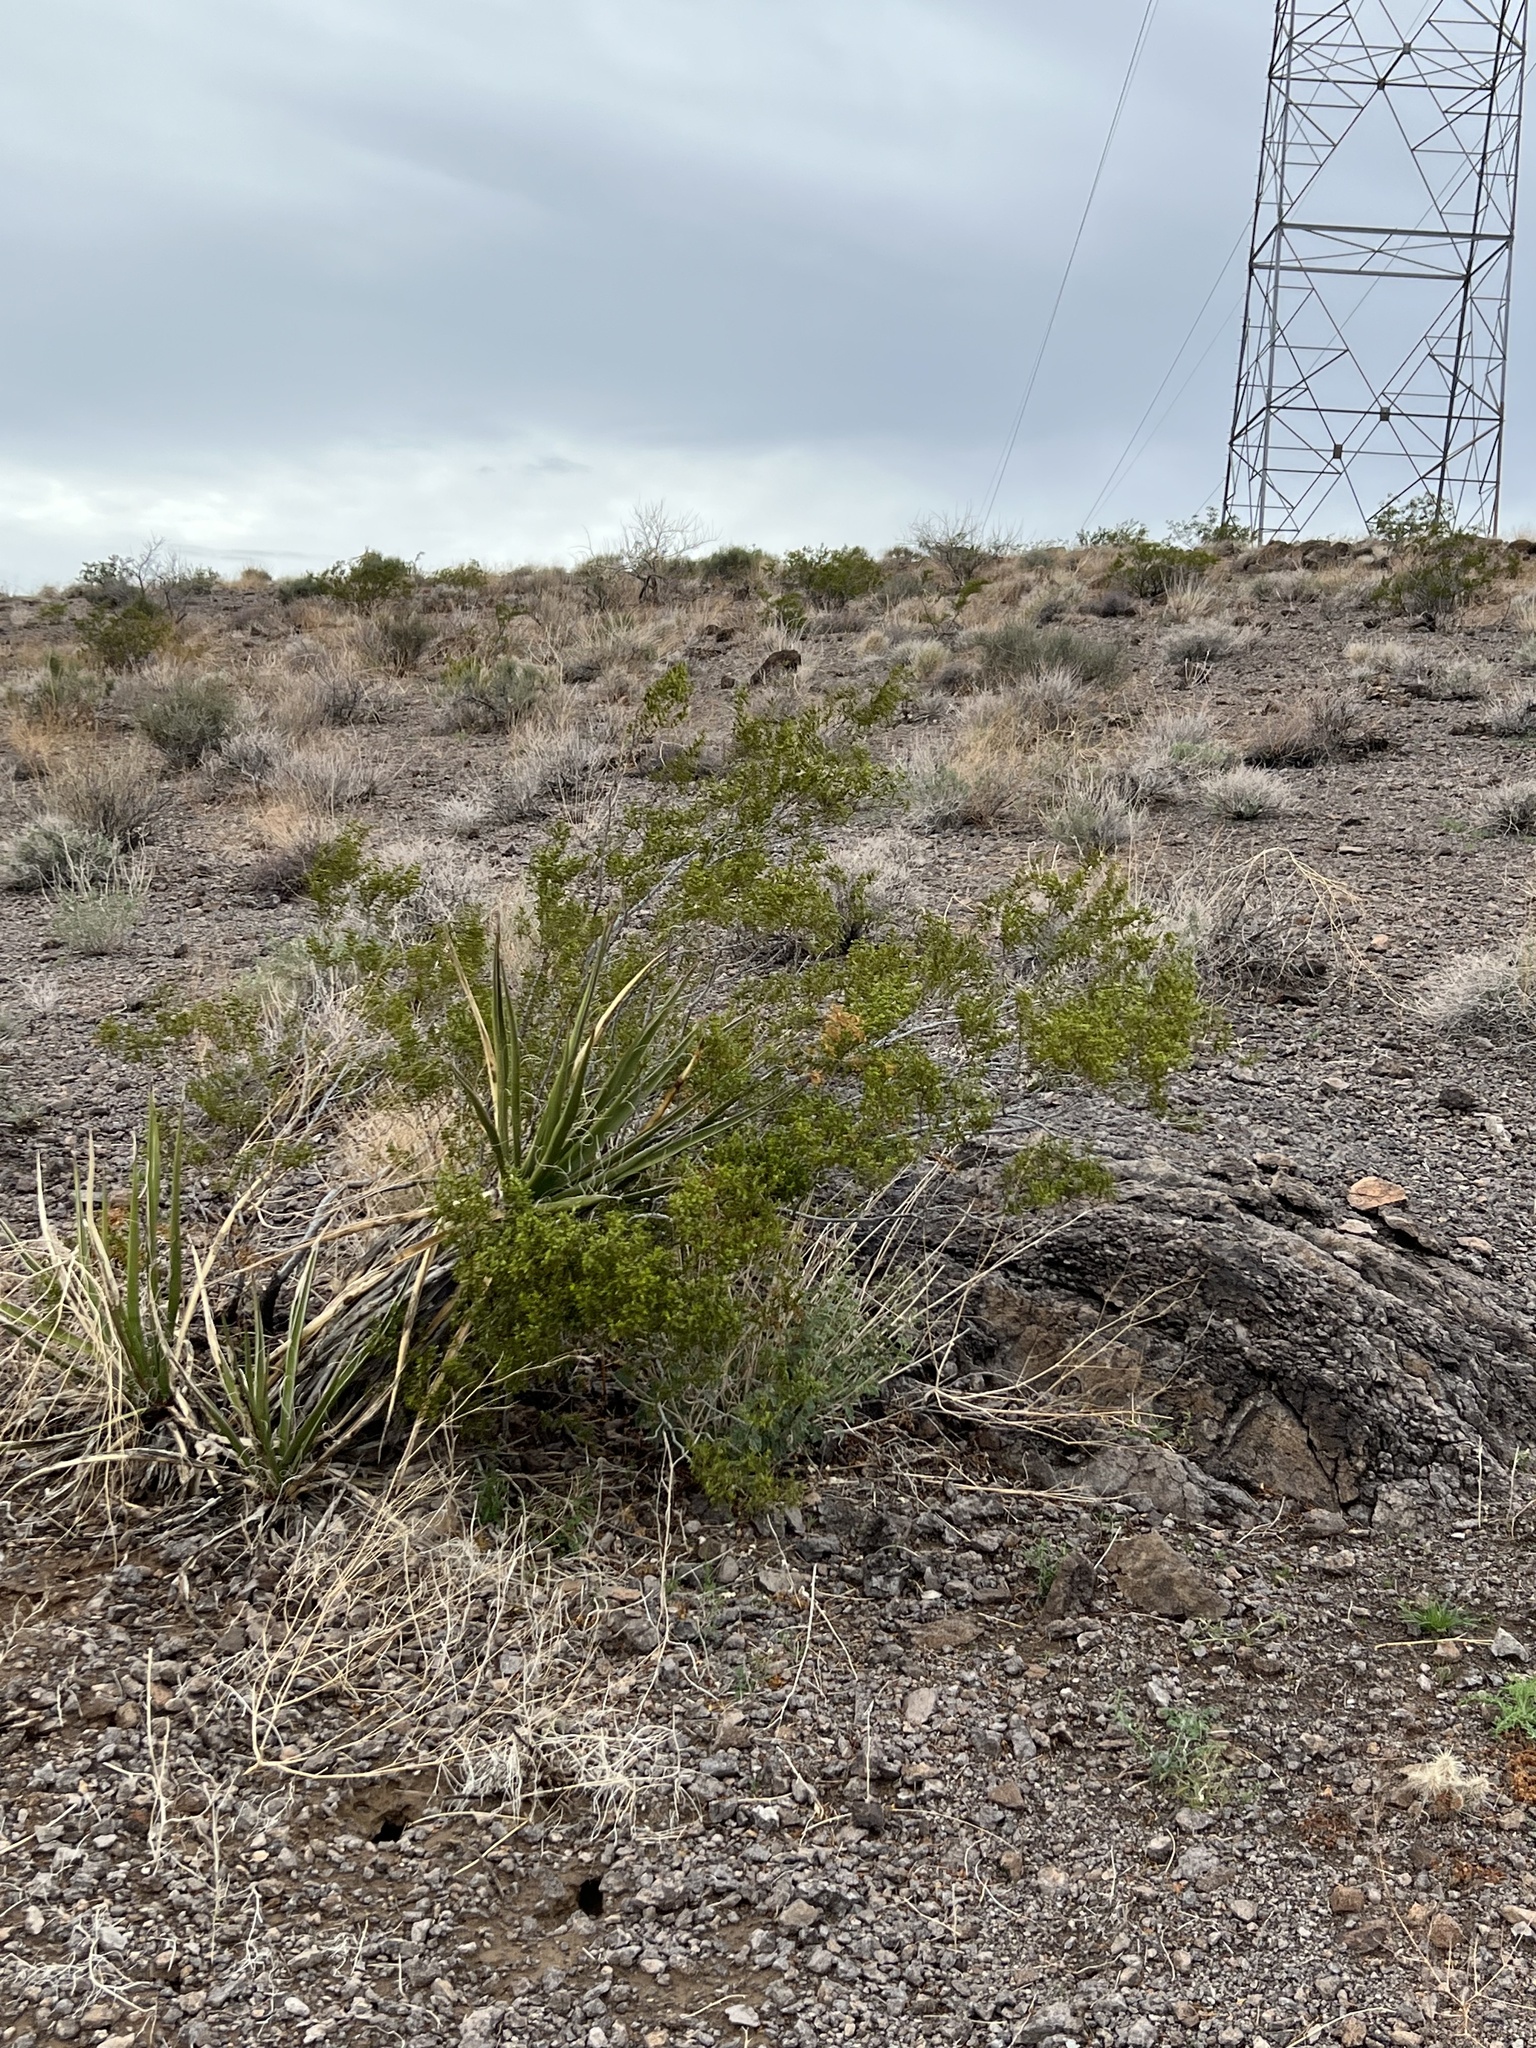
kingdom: Plantae
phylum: Tracheophyta
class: Magnoliopsida
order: Zygophyllales
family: Zygophyllaceae
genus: Larrea
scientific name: Larrea tridentata
